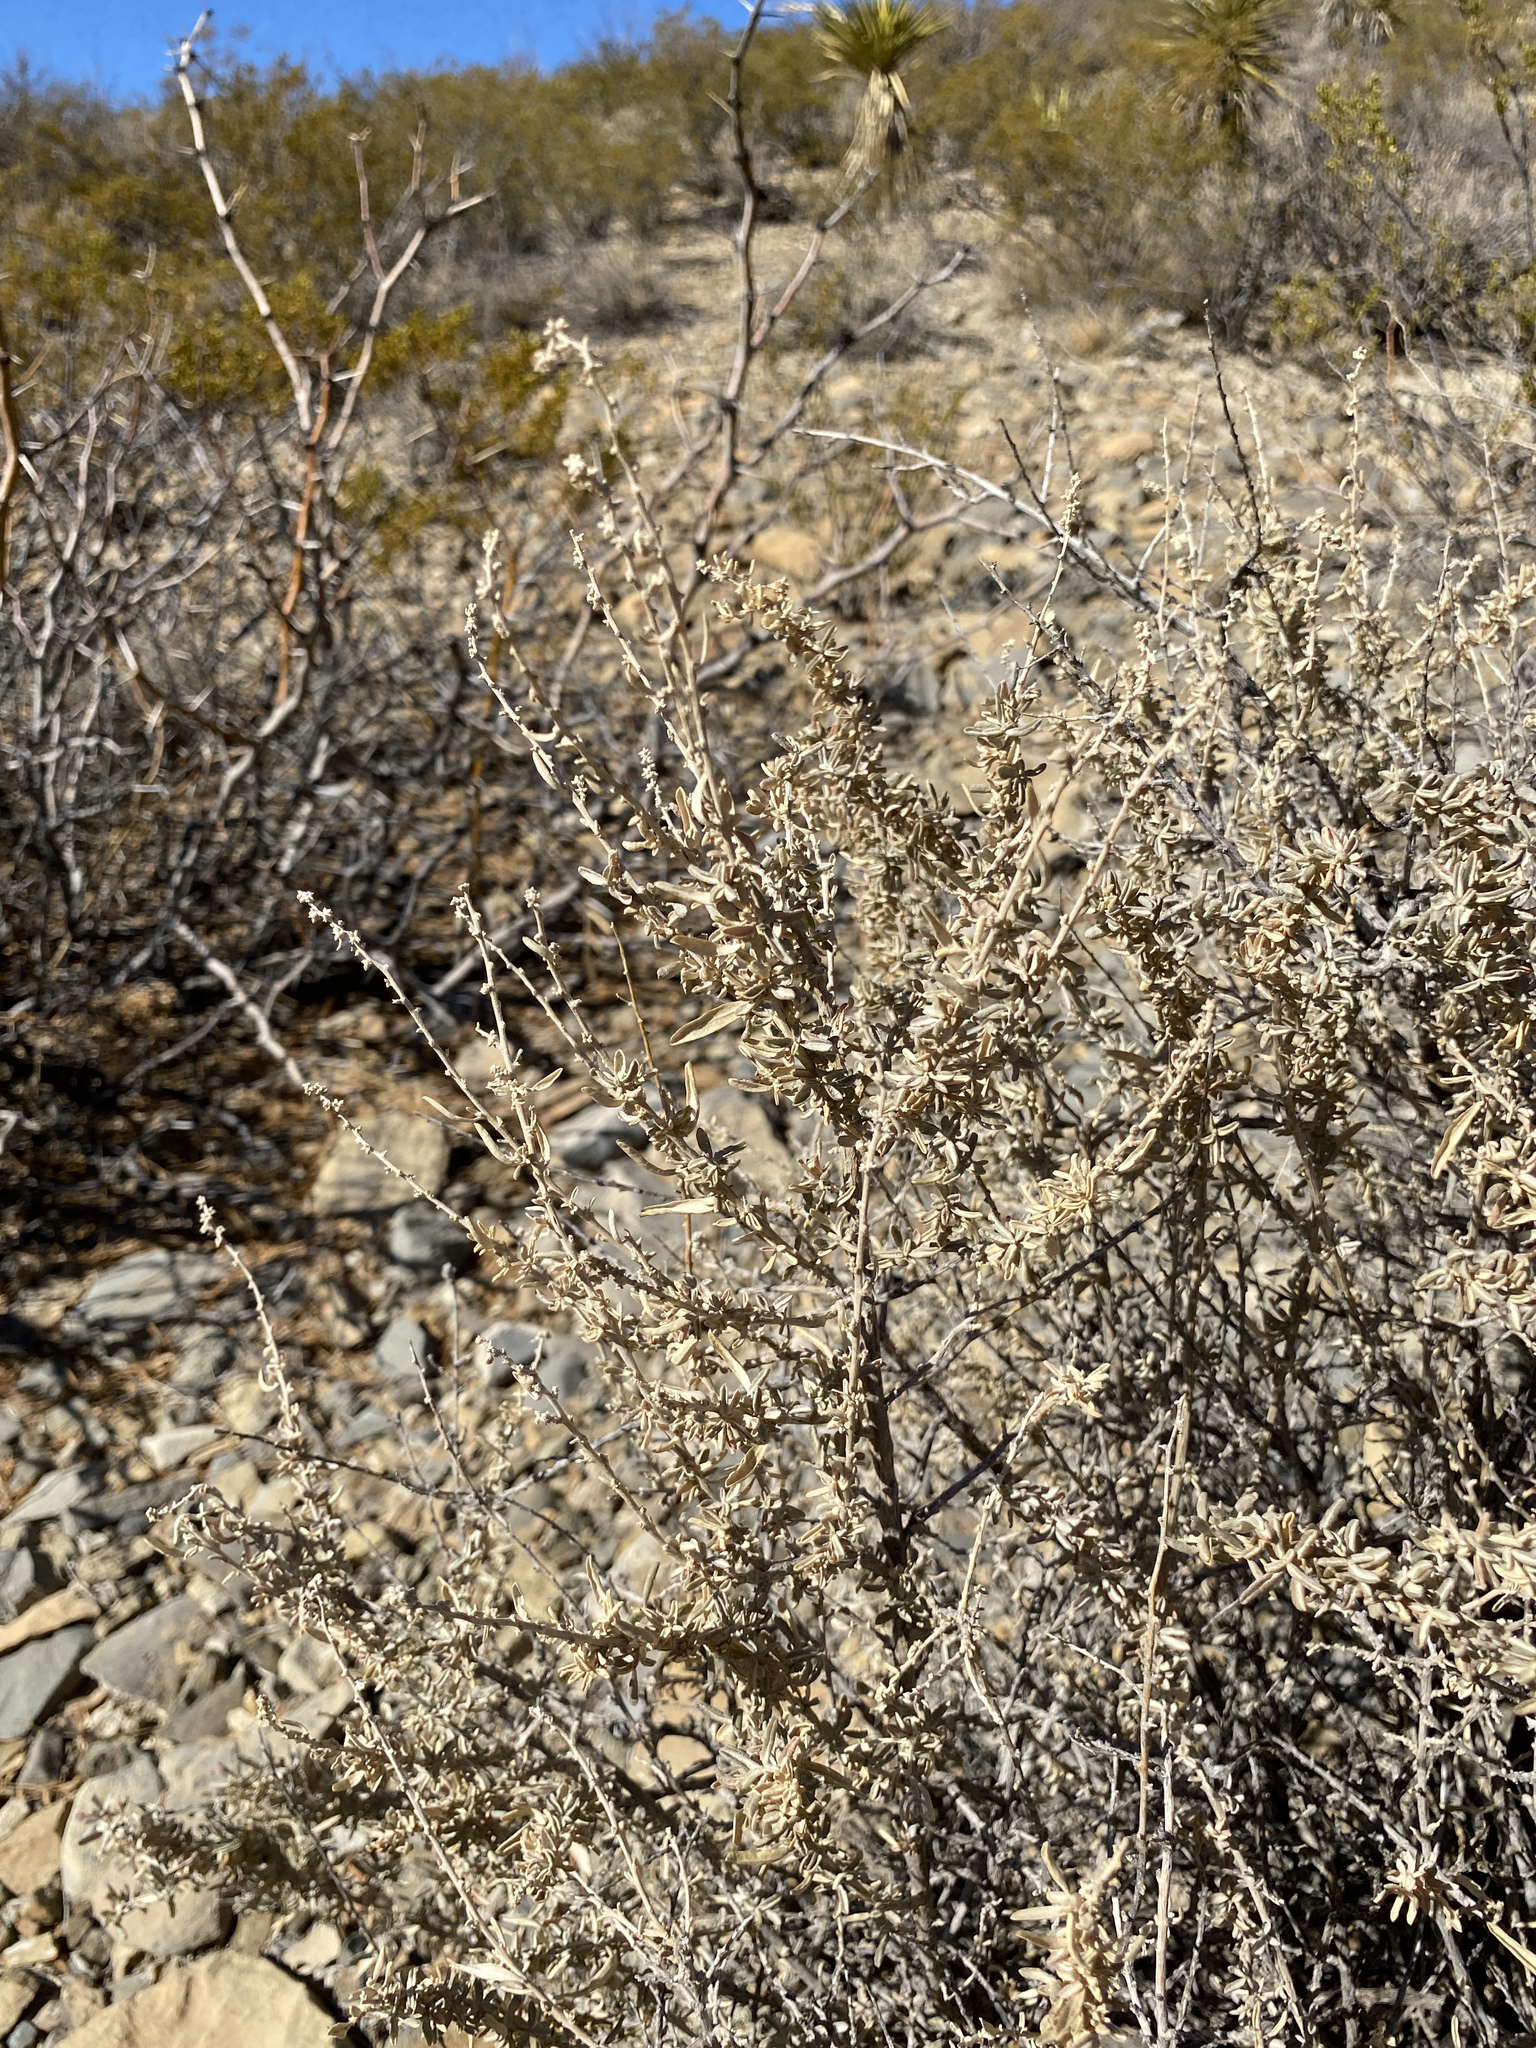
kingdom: Plantae
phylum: Tracheophyta
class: Magnoliopsida
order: Caryophyllales
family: Amaranthaceae
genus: Atriplex
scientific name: Atriplex canescens
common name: Four-wing saltbush
